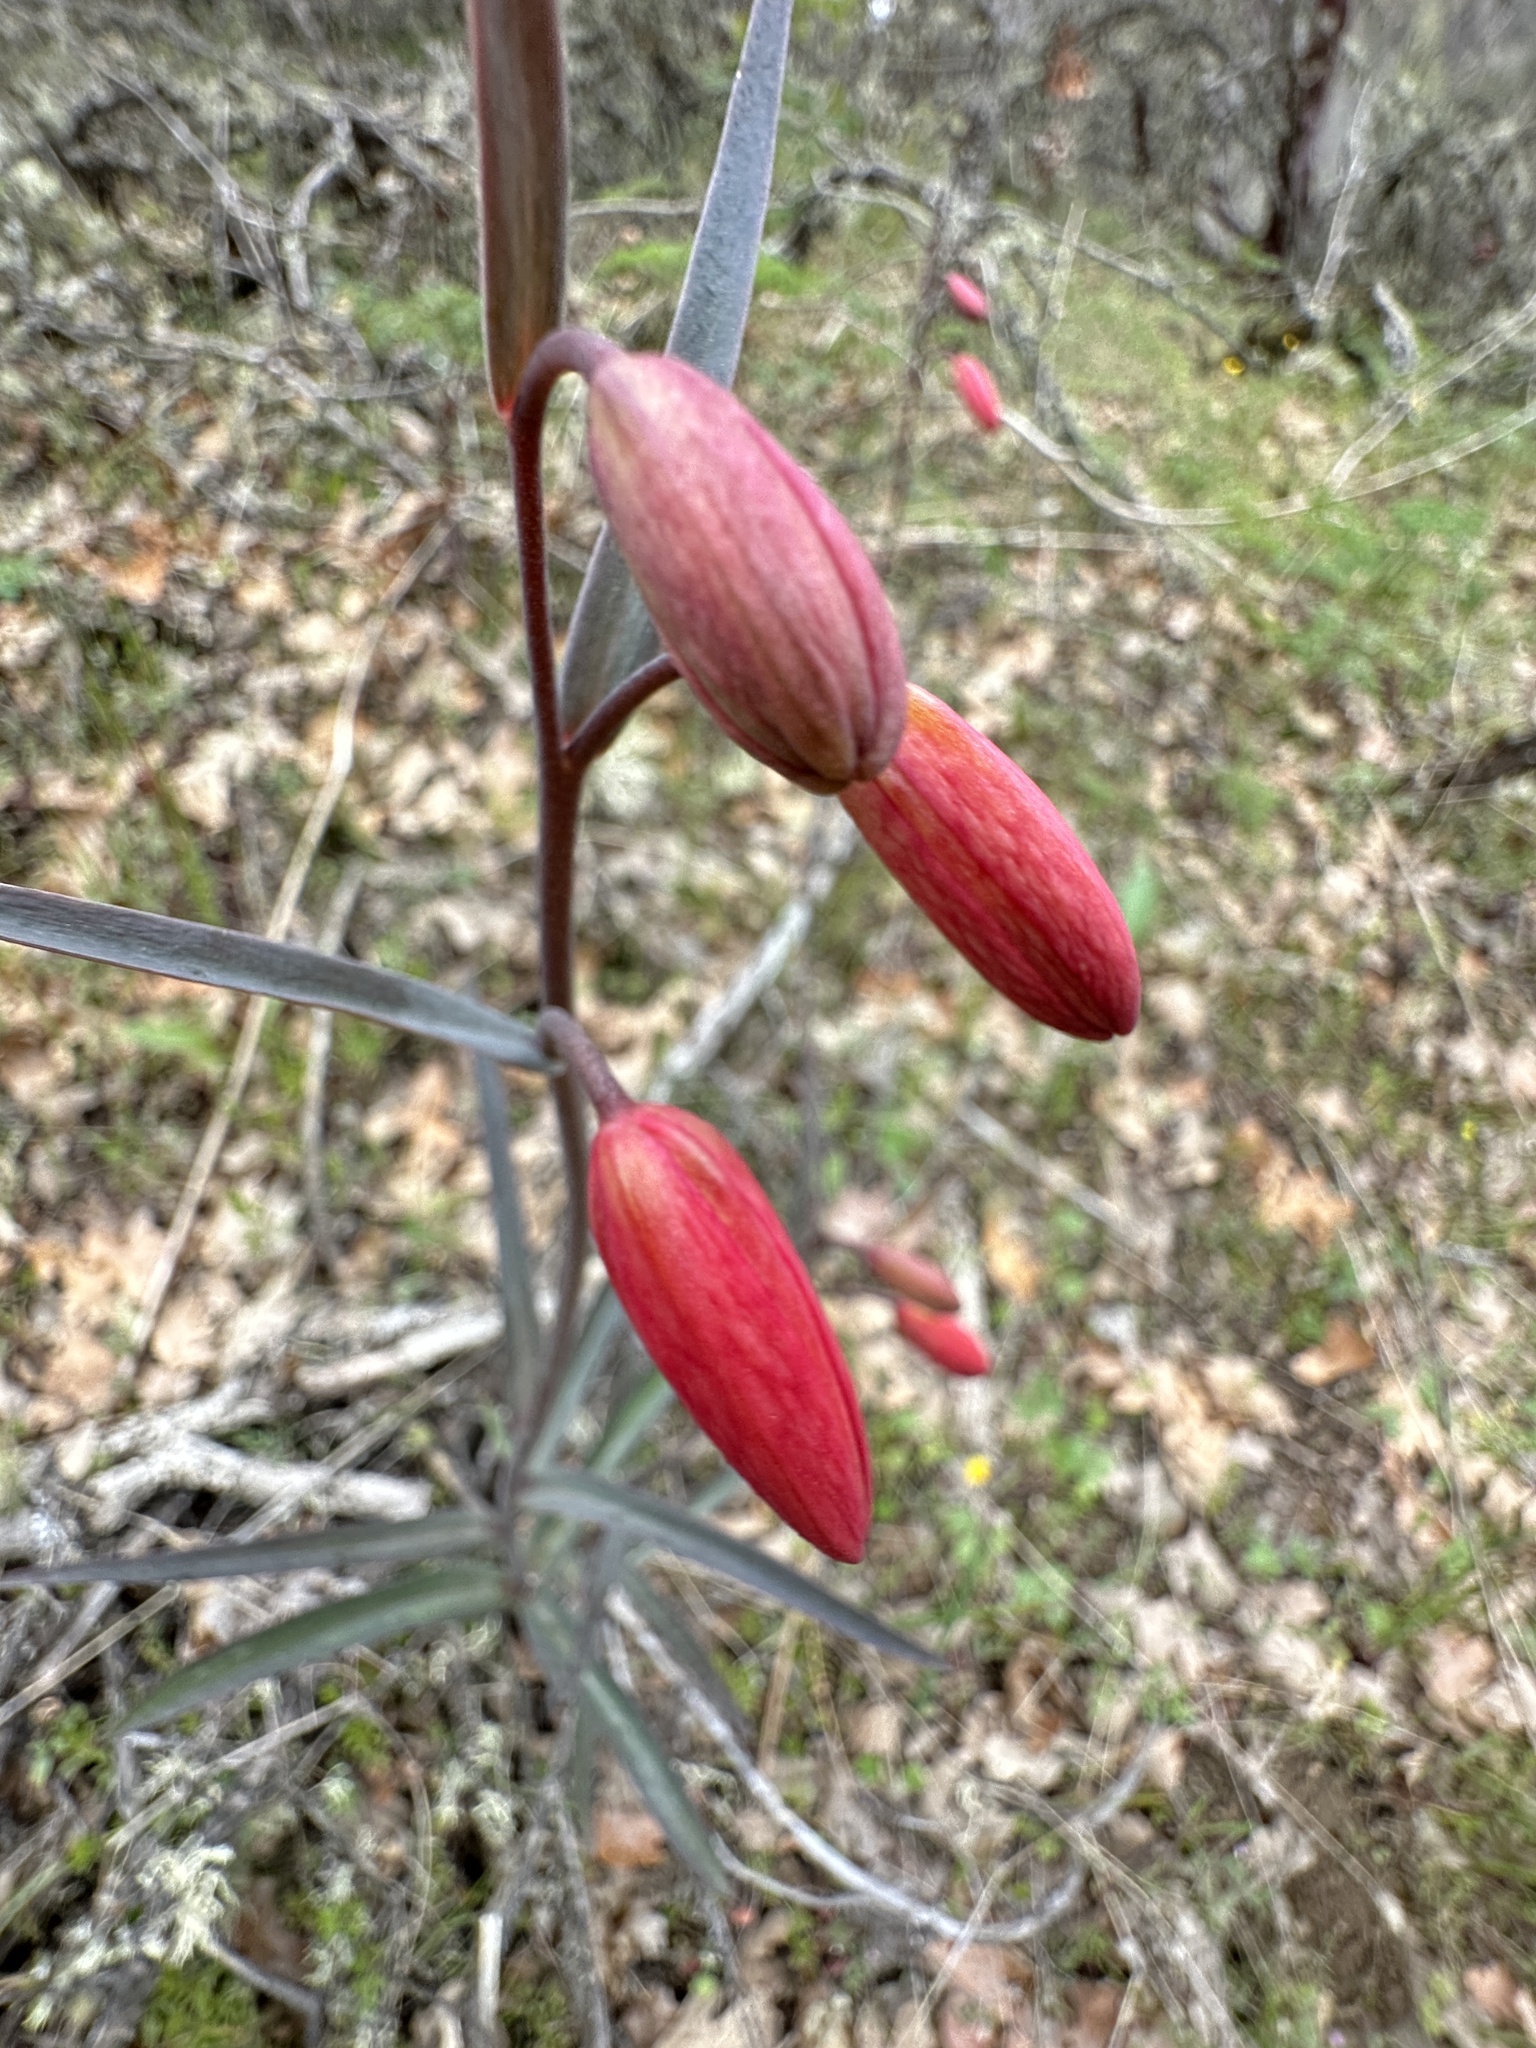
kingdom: Plantae
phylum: Tracheophyta
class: Liliopsida
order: Liliales
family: Liliaceae
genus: Fritillaria
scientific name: Fritillaria recurva
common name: Scarlet fritillary
